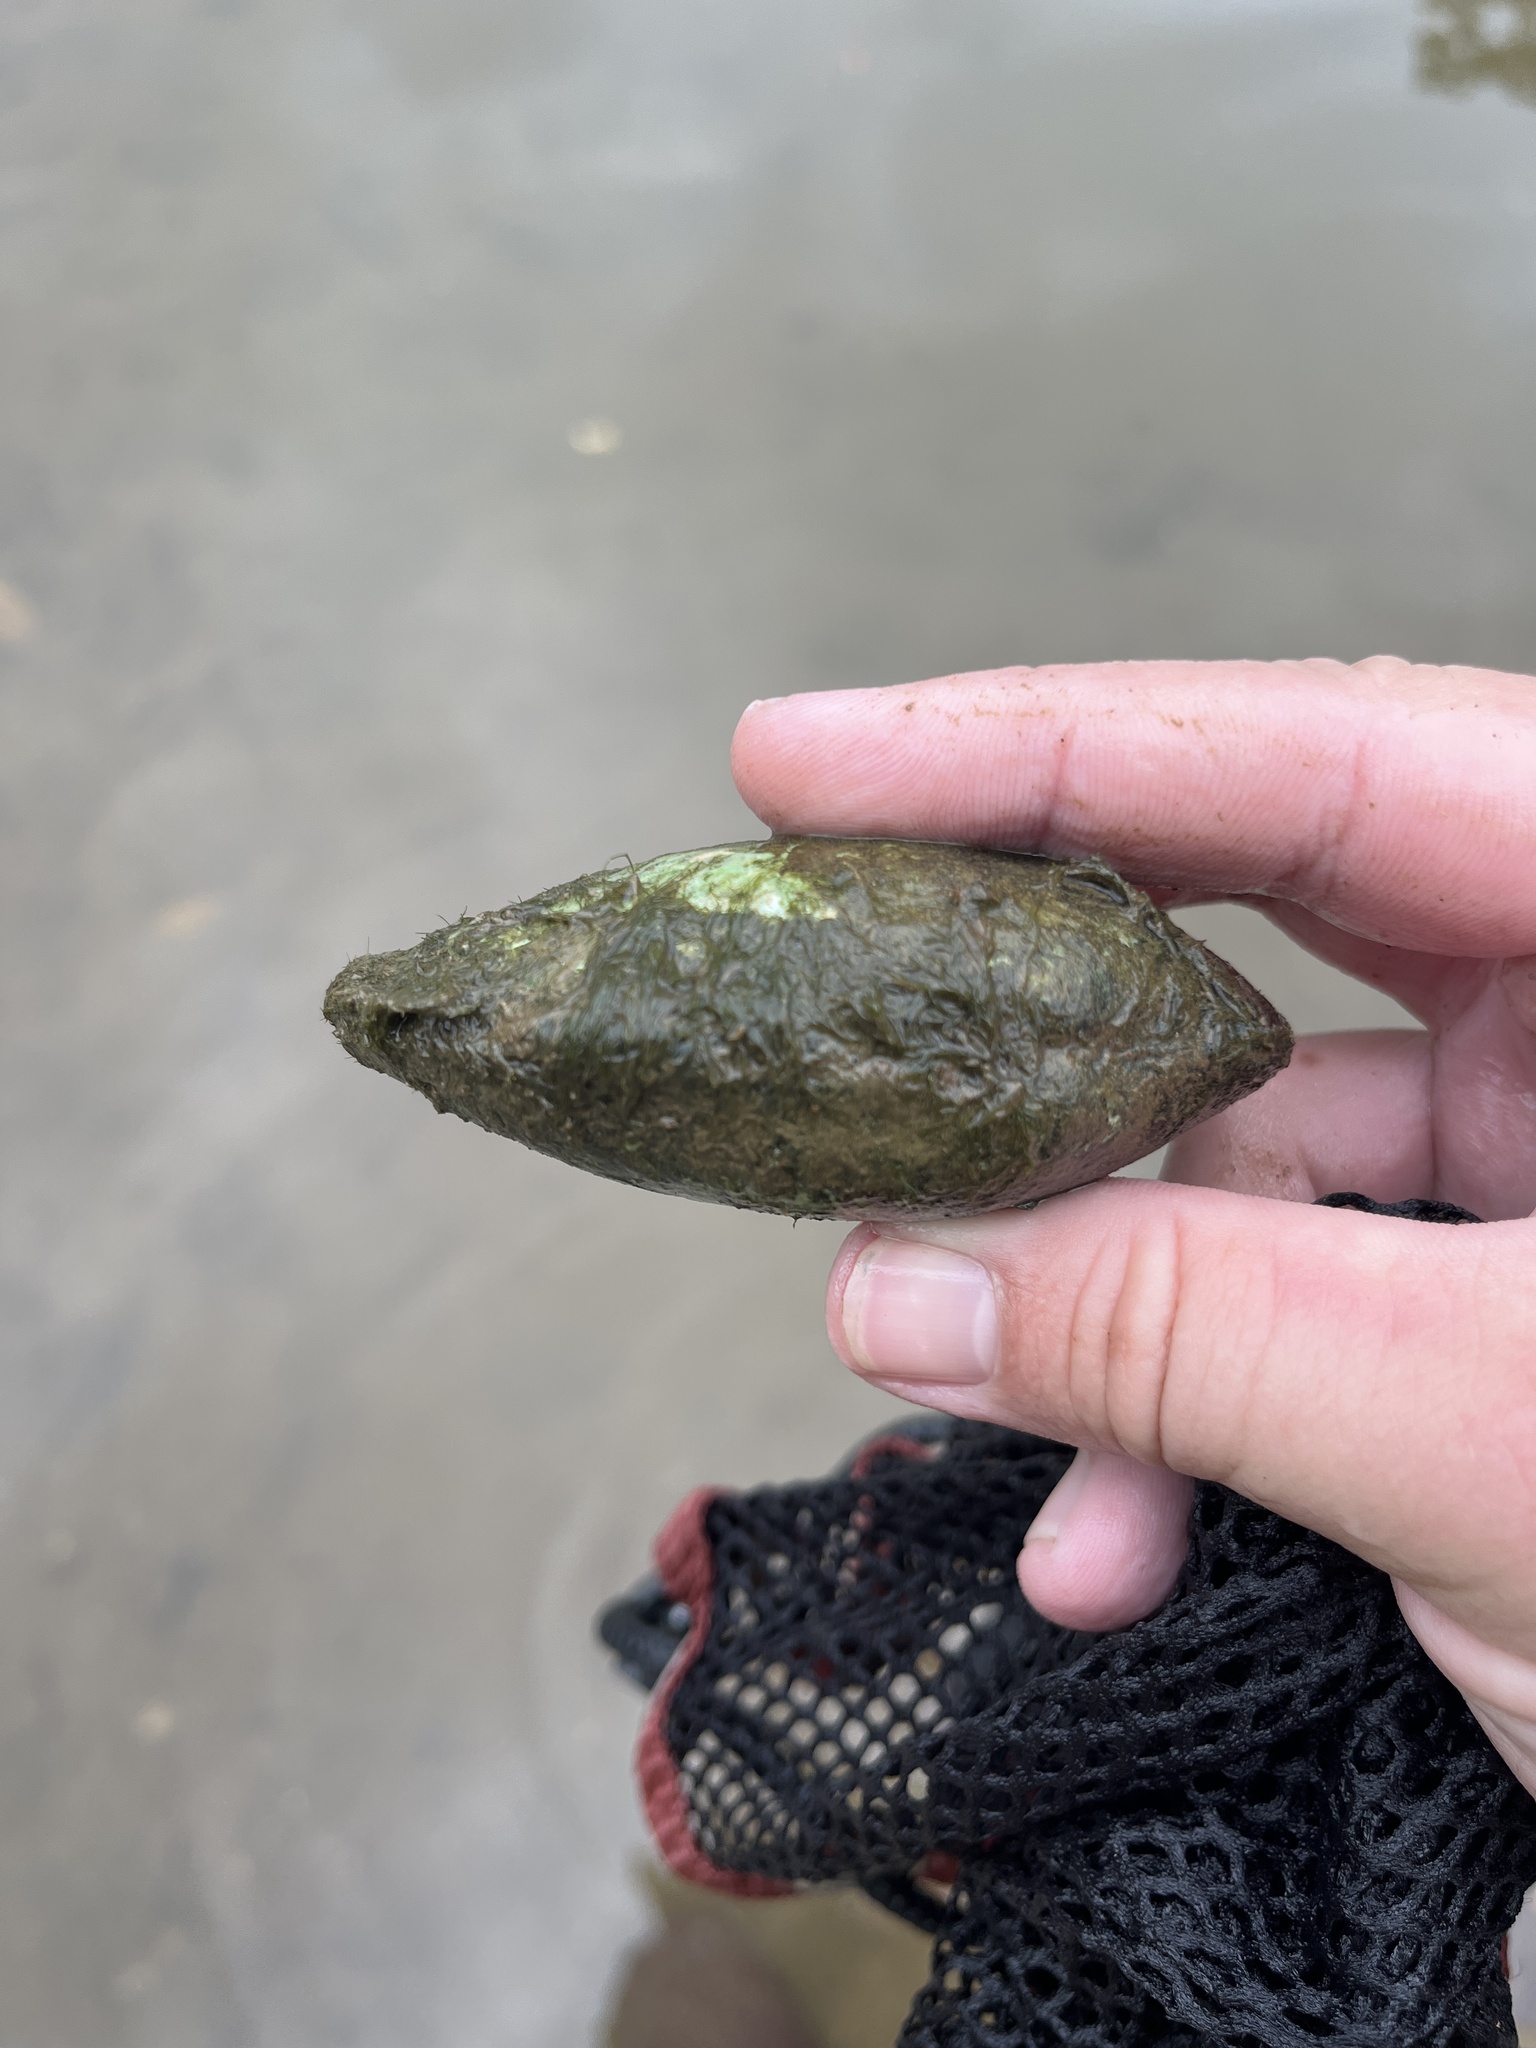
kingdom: Animalia
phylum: Mollusca
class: Bivalvia
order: Unionida
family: Unionidae
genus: Lampsilis
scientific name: Lampsilis siliquoidea
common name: Fatmucket
